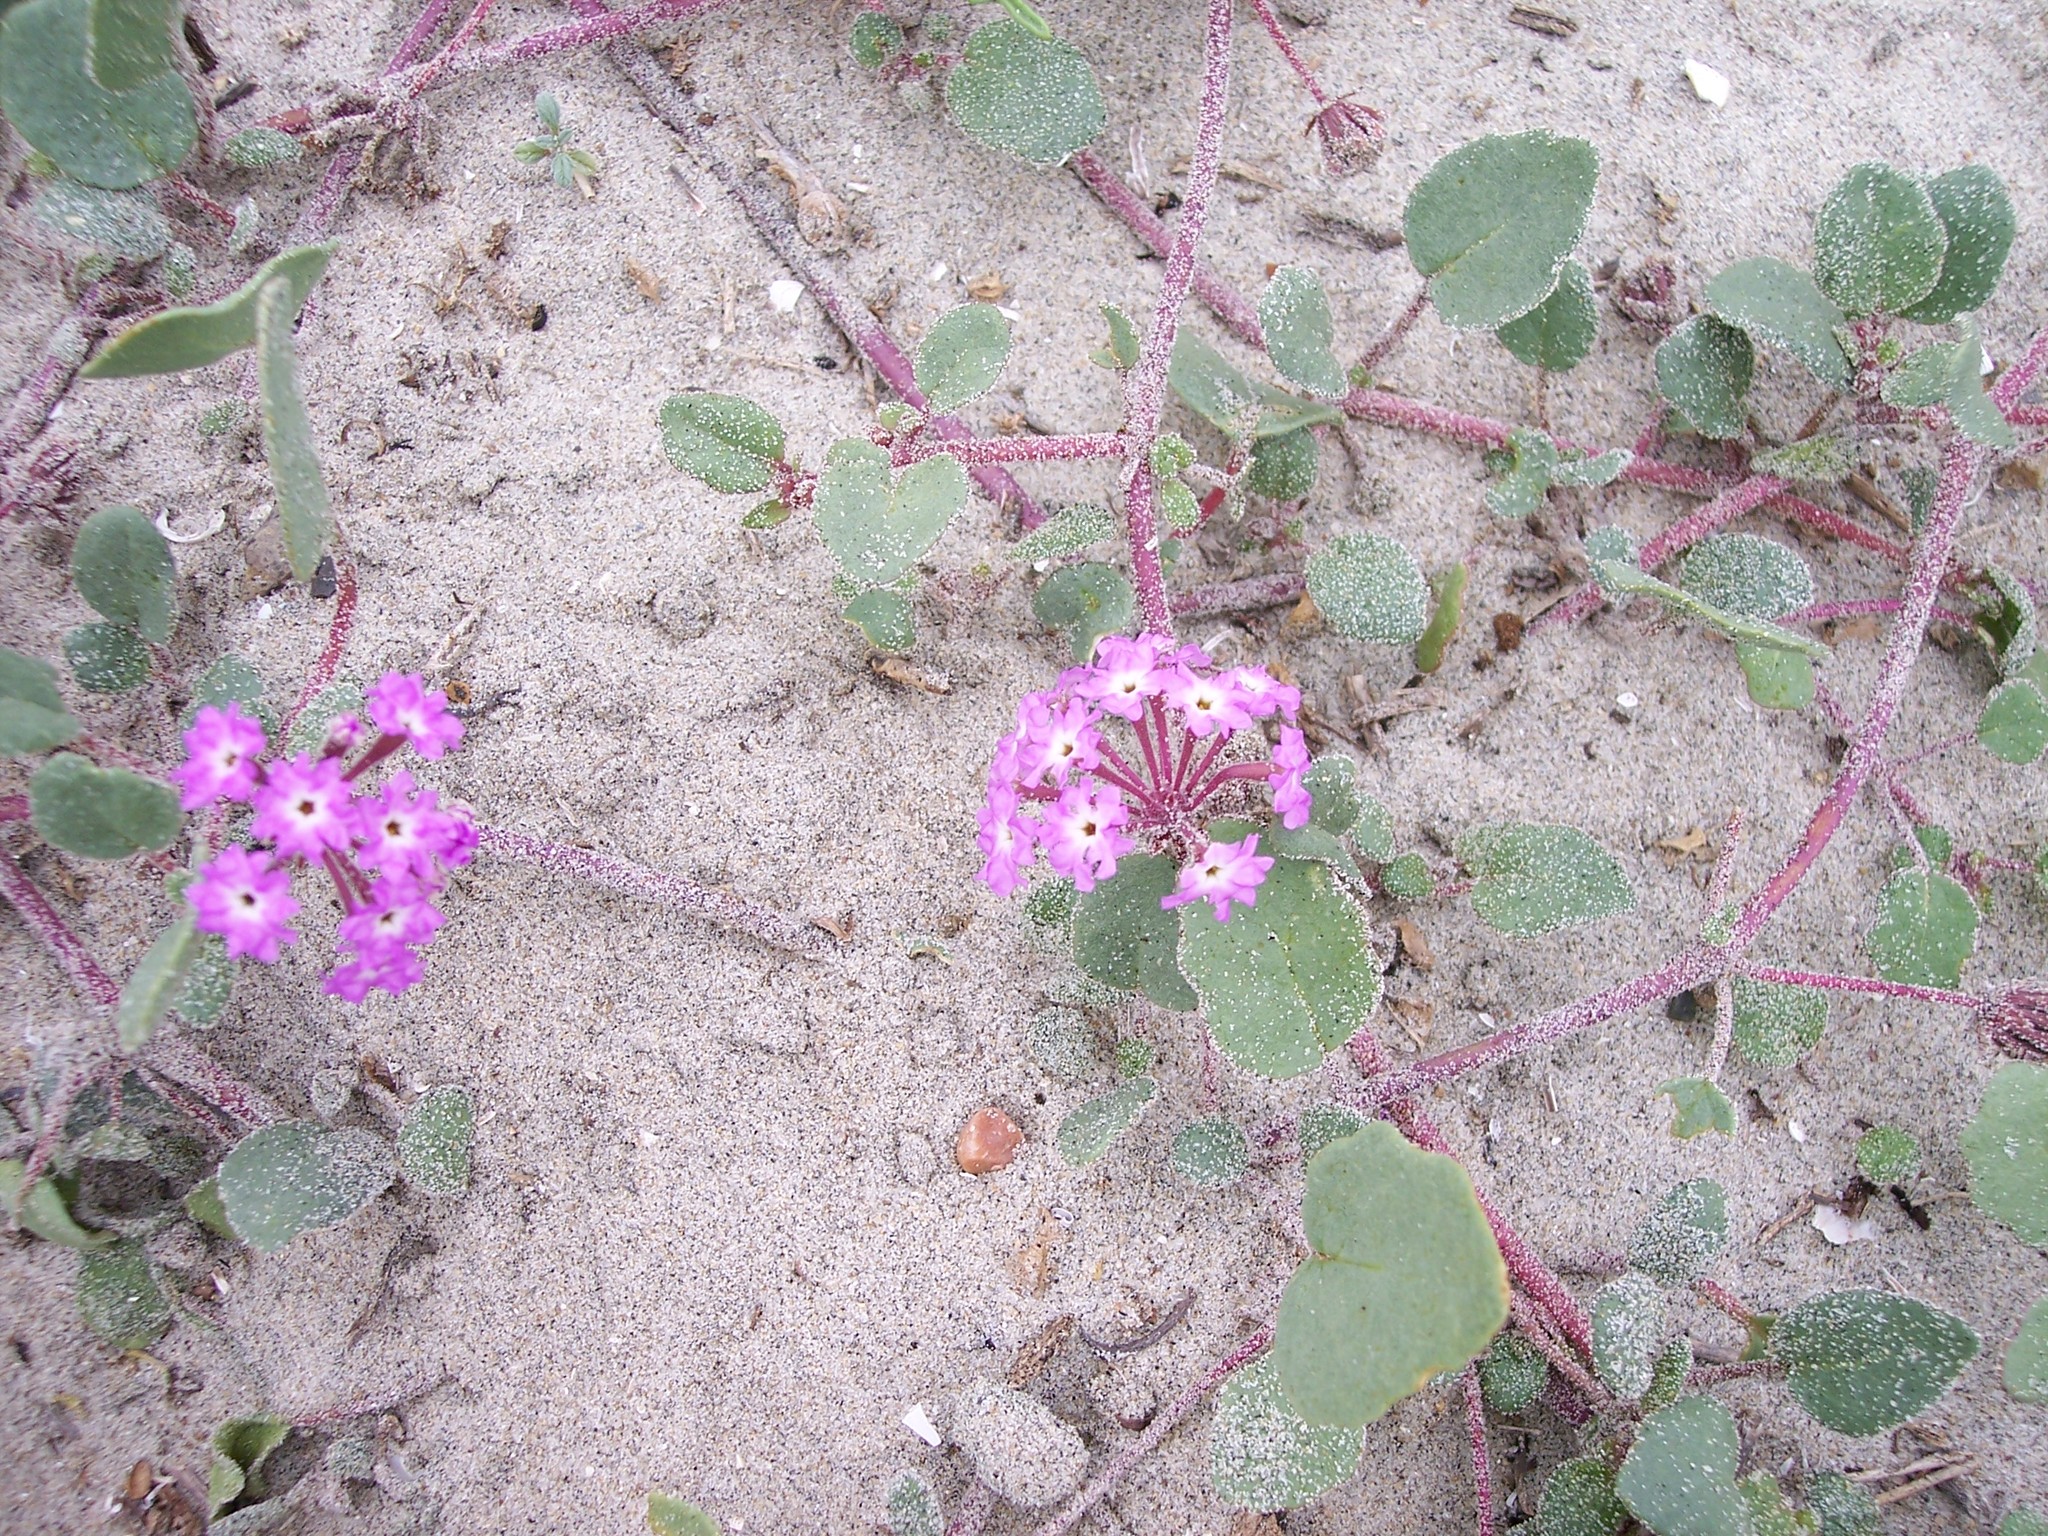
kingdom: Plantae
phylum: Tracheophyta
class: Magnoliopsida
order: Caryophyllales
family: Nyctaginaceae
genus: Abronia
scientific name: Abronia umbellata
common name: Sand-verbena
